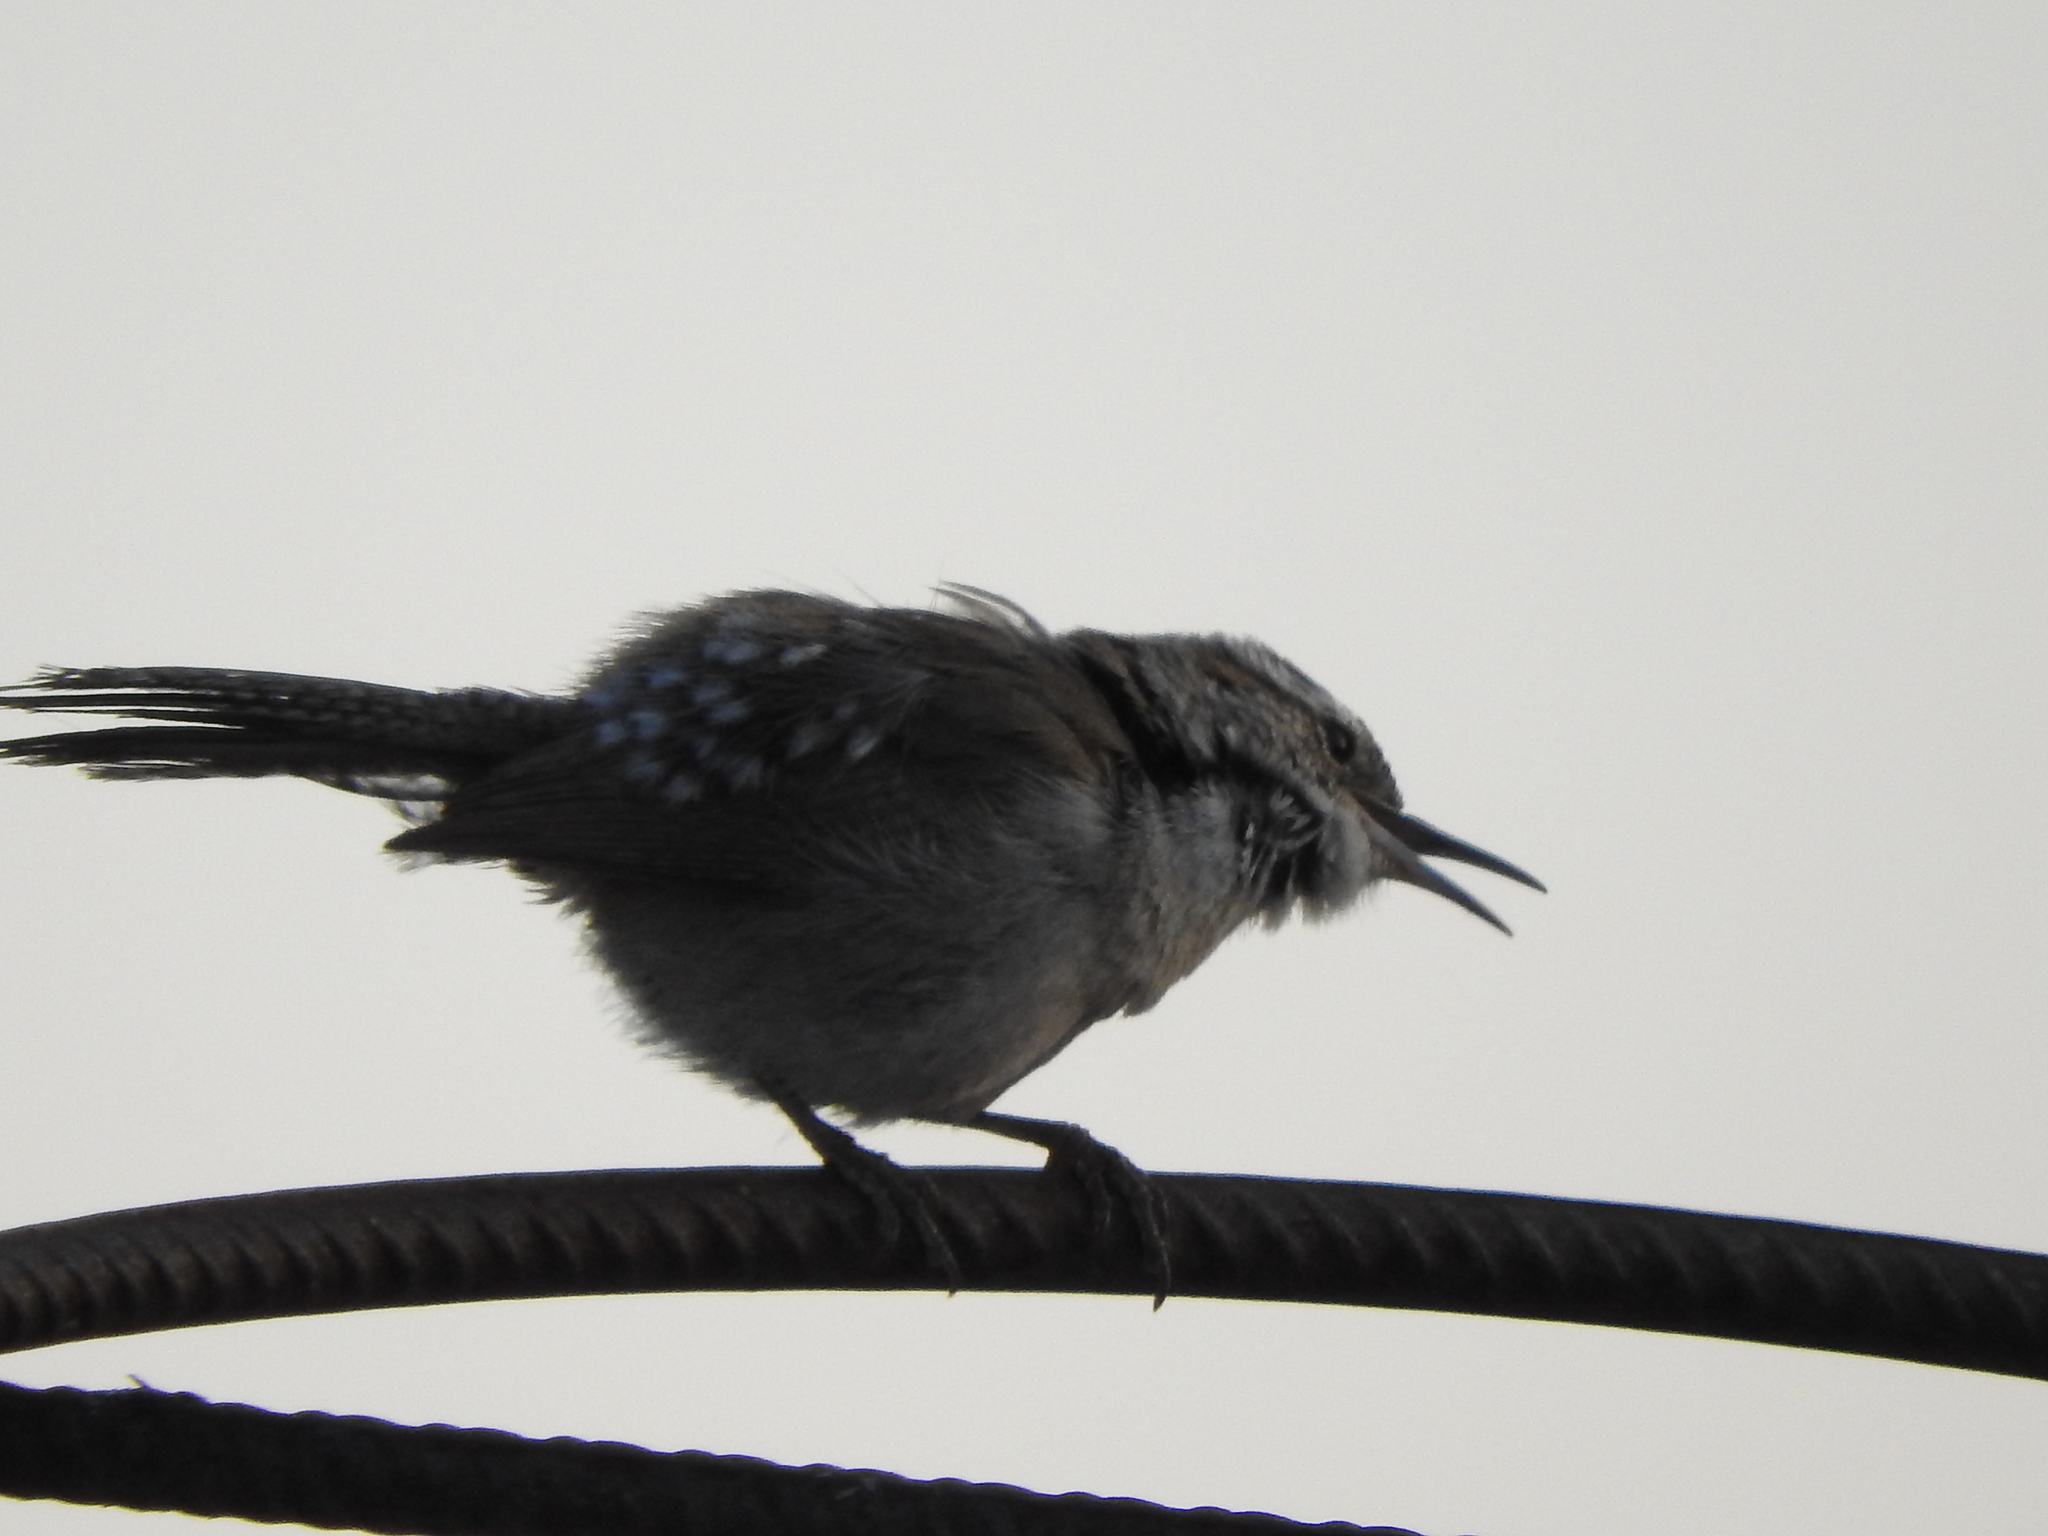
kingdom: Animalia
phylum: Chordata
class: Aves
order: Passeriformes
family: Troglodytidae
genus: Thryomanes
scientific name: Thryomanes bewickii
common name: Bewick's wren
